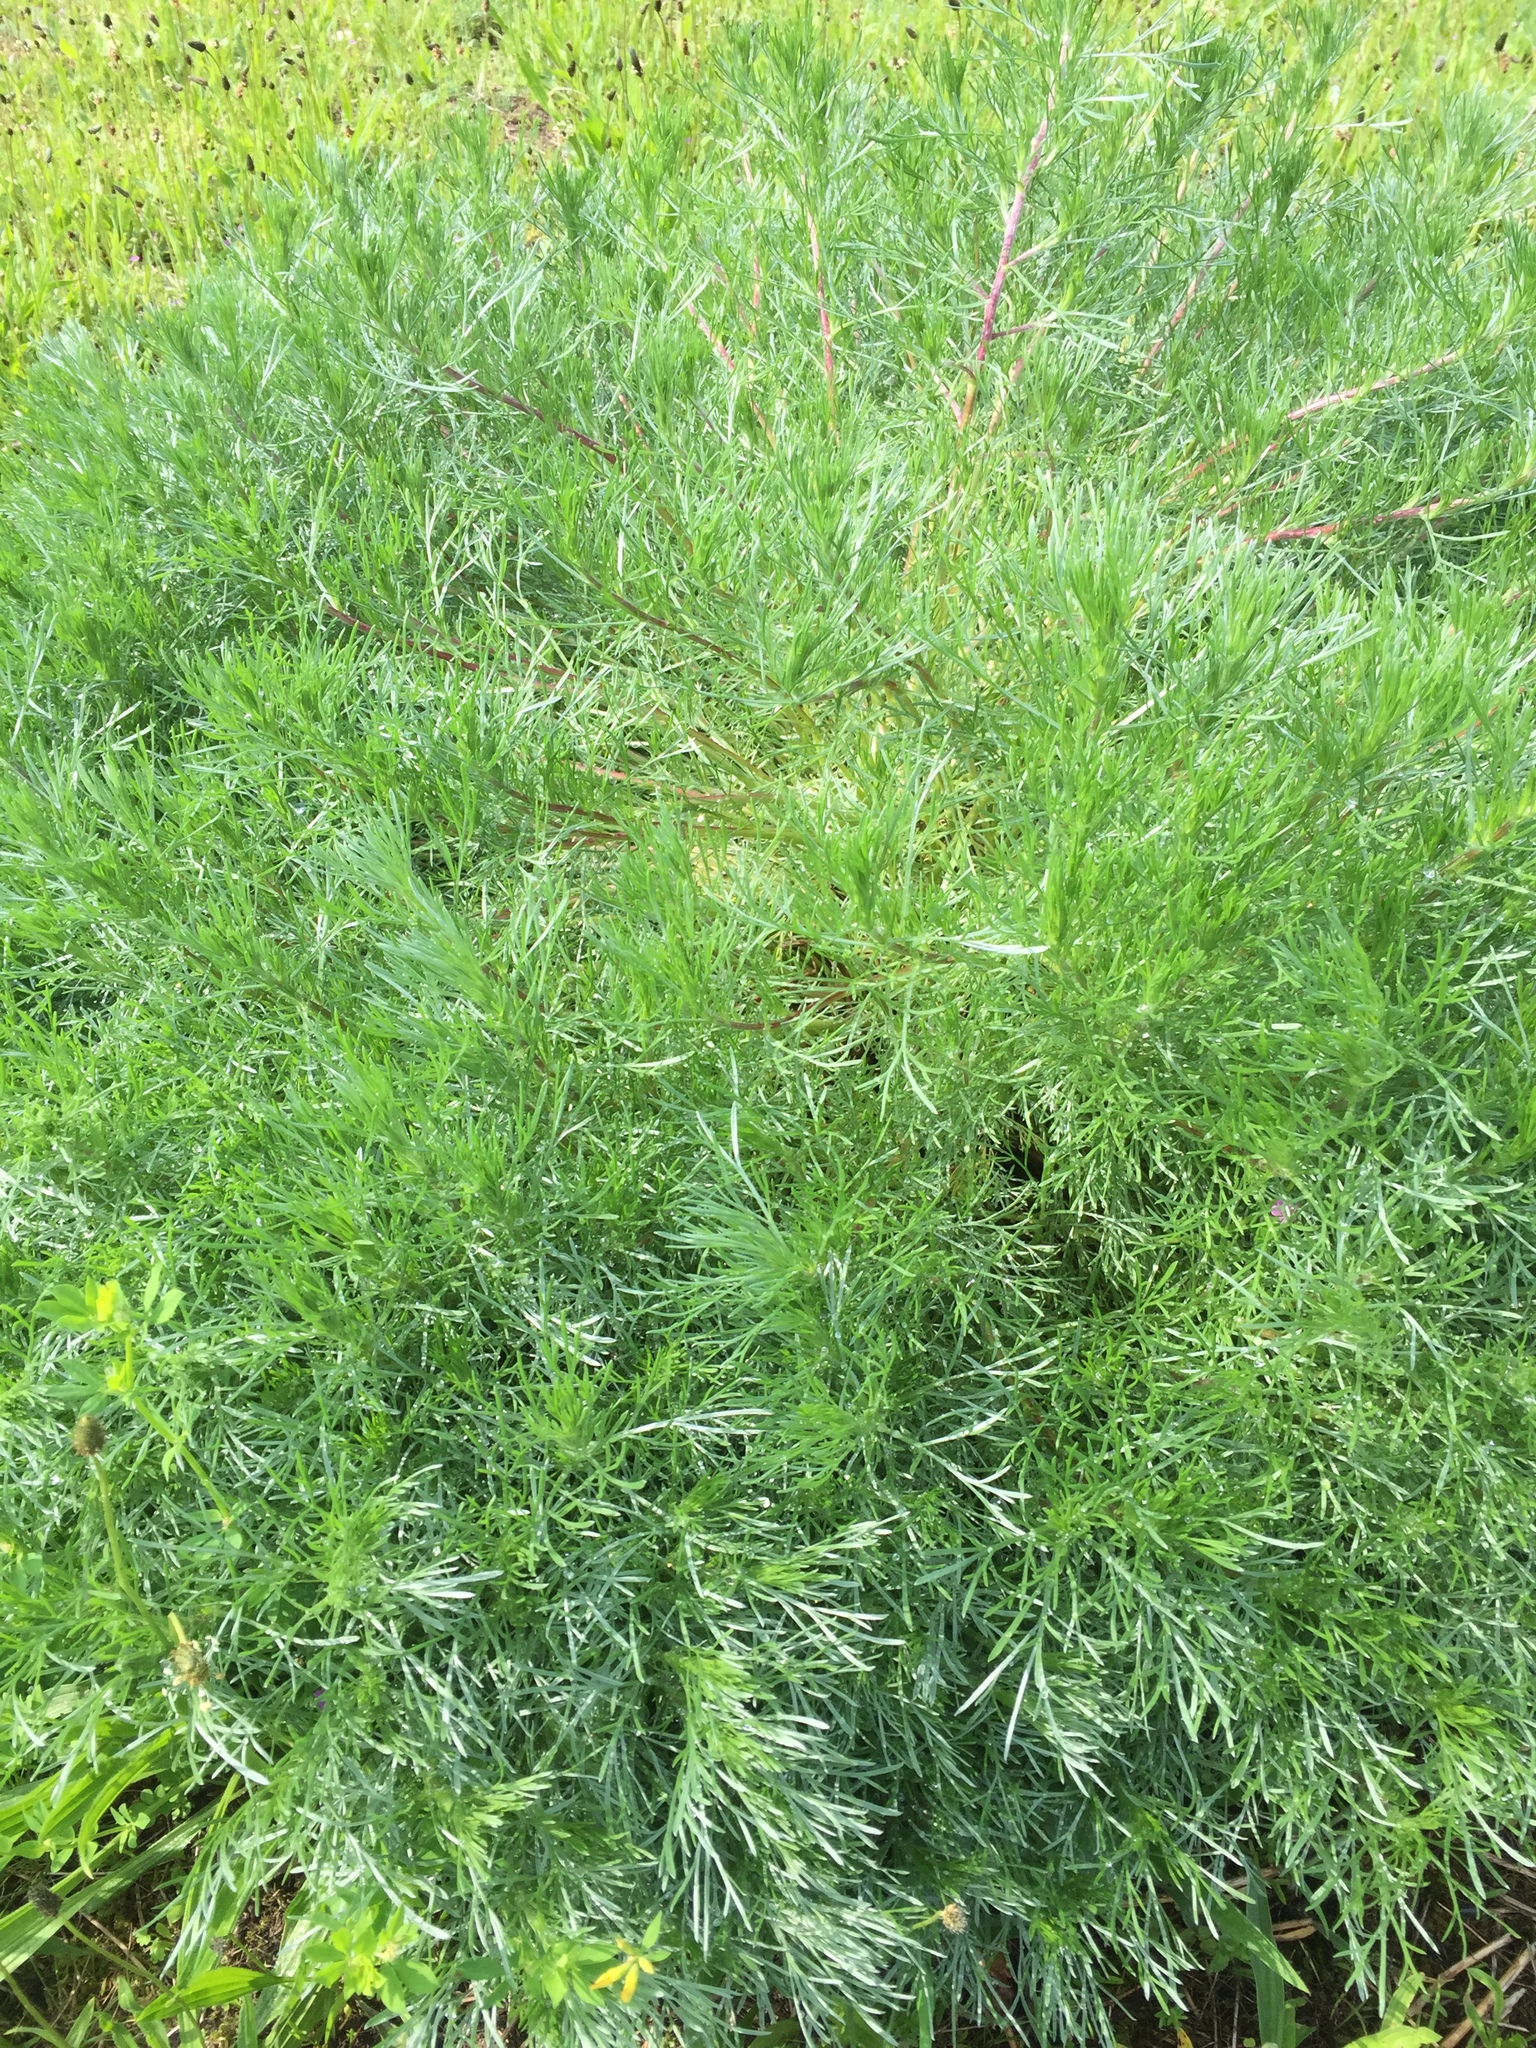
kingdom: Plantae
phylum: Tracheophyta
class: Magnoliopsida
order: Asterales
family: Asteraceae
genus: Artemisia
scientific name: Artemisia campestris
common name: Field wormwood
